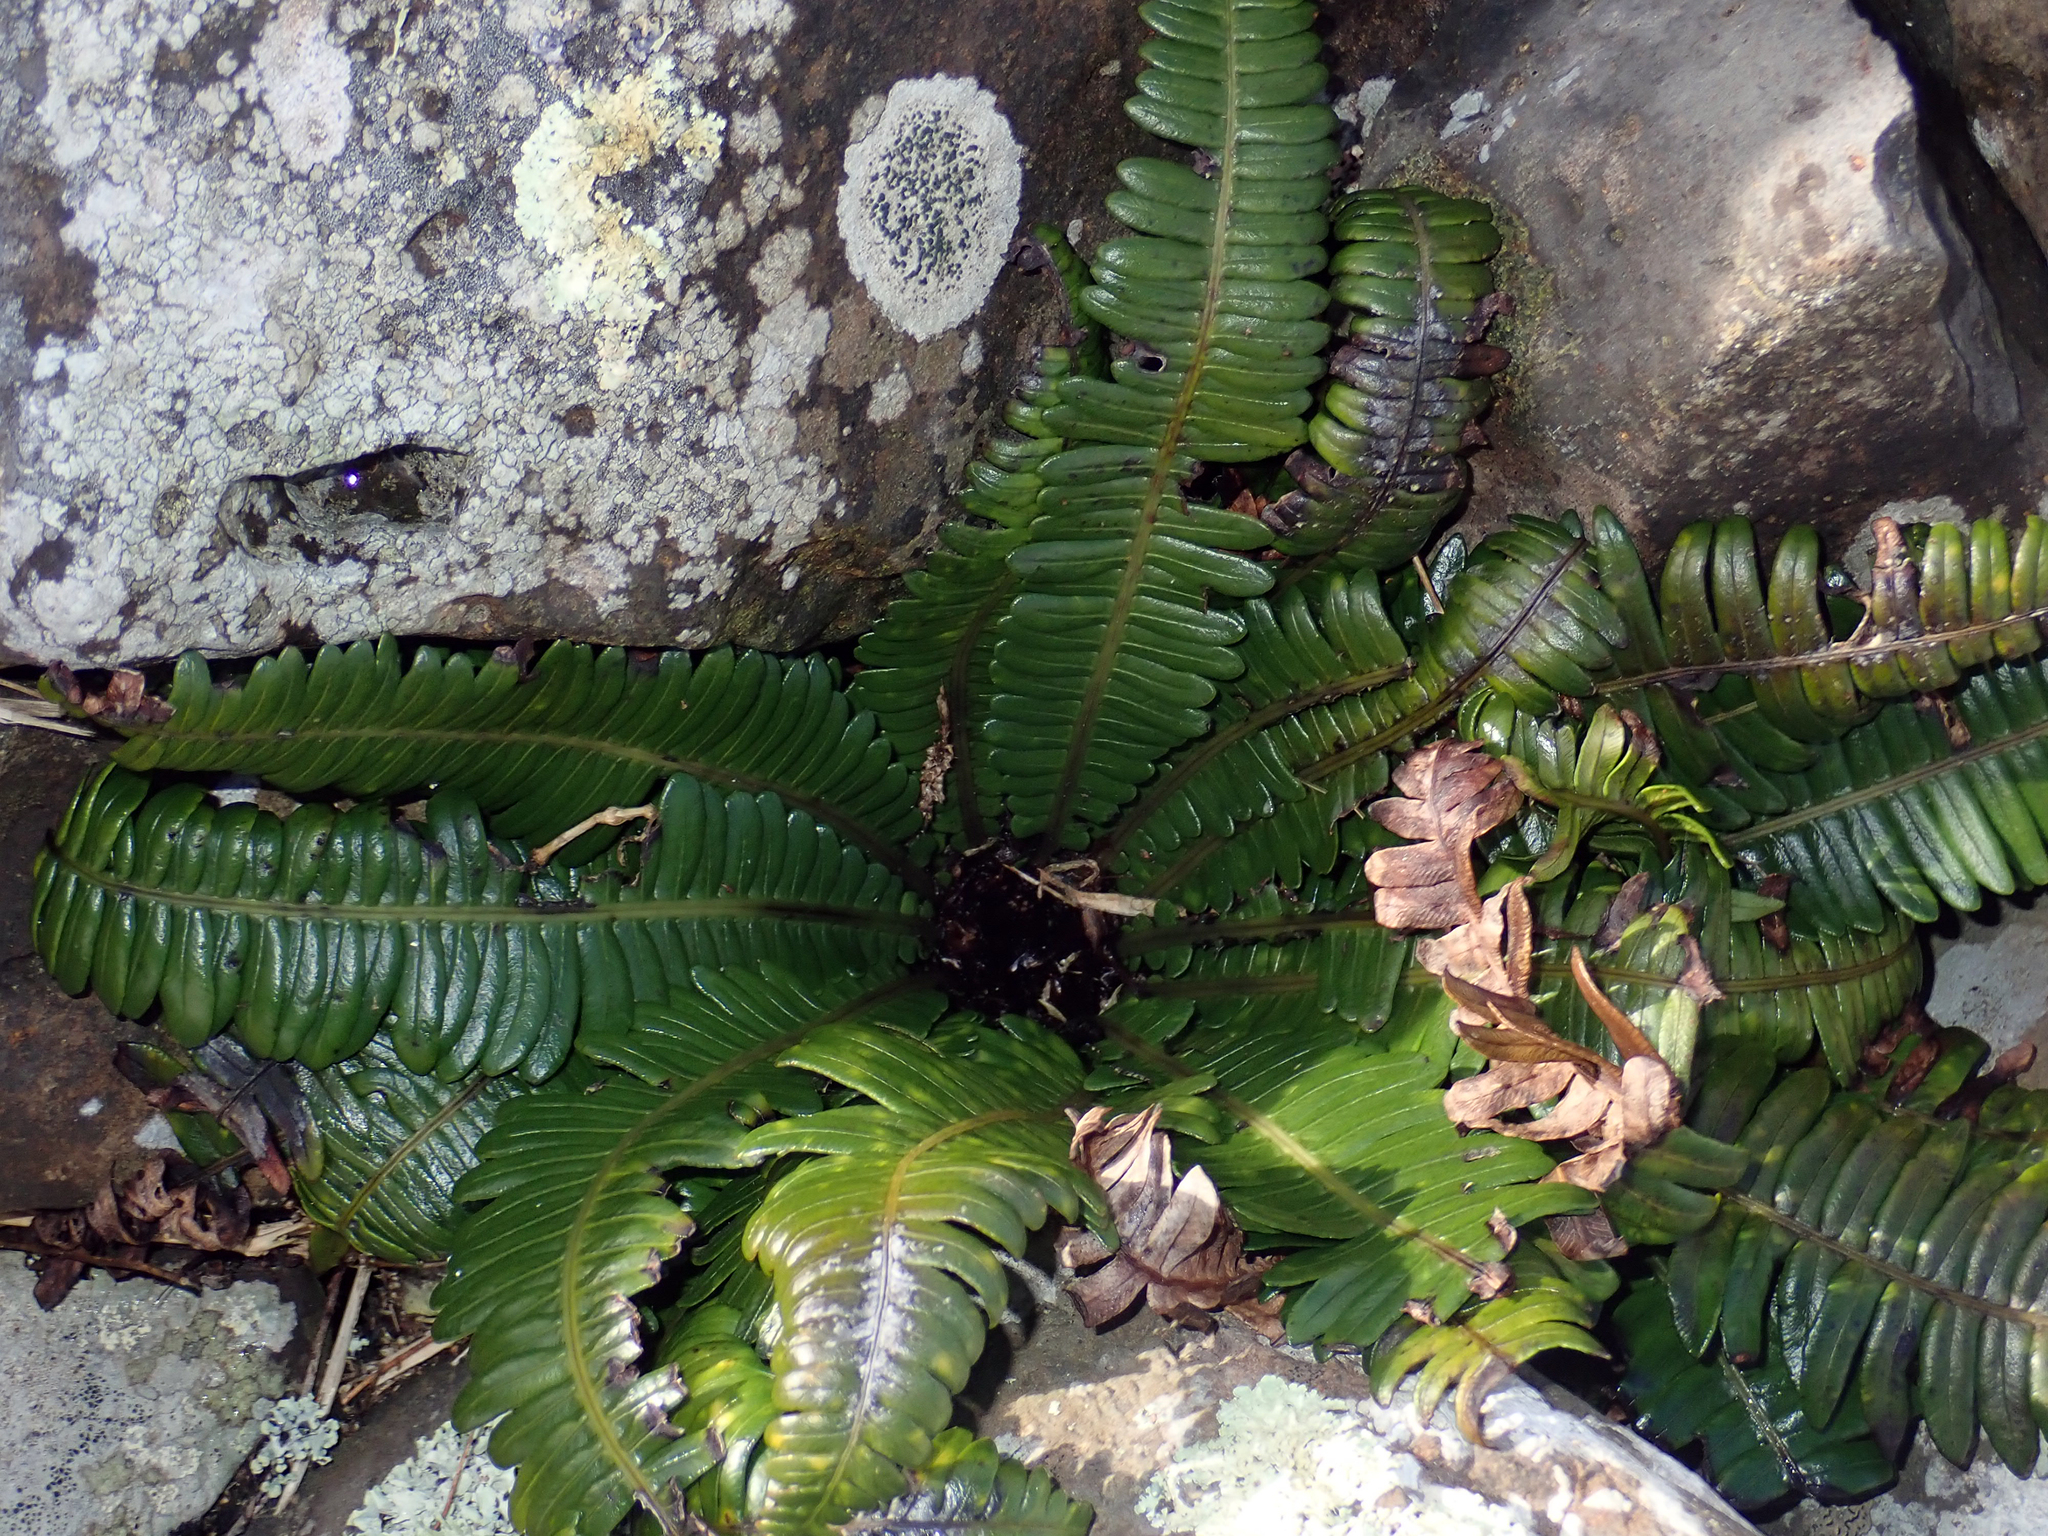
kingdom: Plantae
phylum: Tracheophyta
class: Polypodiopsida
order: Polypodiales
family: Blechnaceae
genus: Austroblechnum
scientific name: Austroblechnum durum
